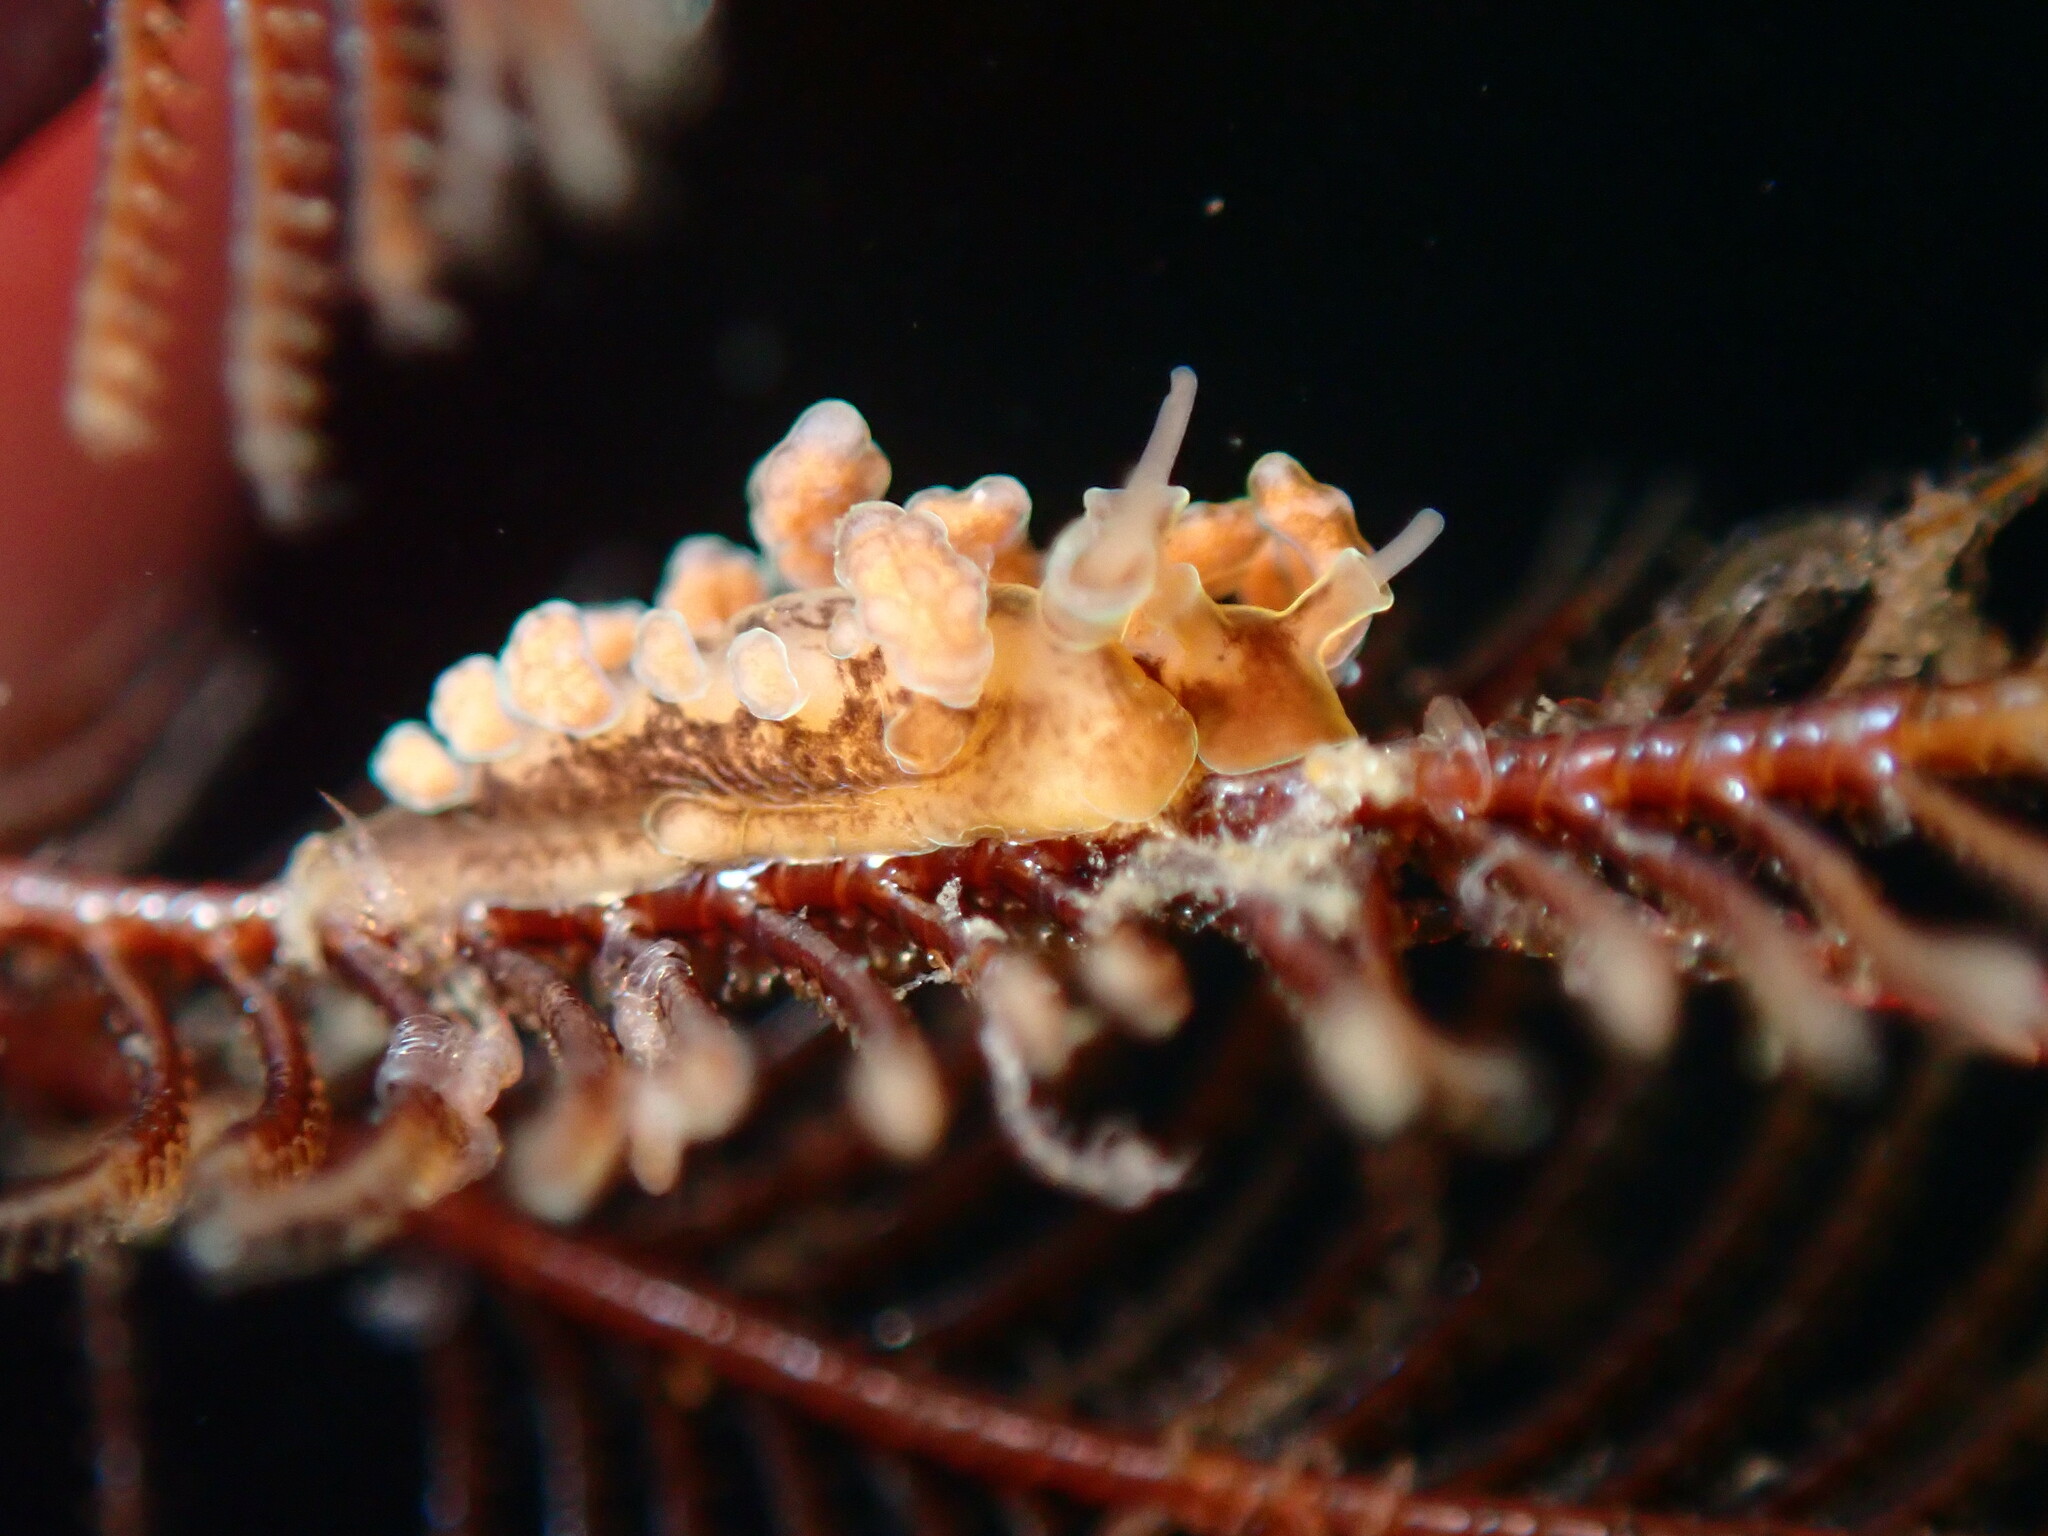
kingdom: Animalia
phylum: Mollusca
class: Gastropoda
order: Nudibranchia
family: Dotidae
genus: Doto
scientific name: Doto columbiana
